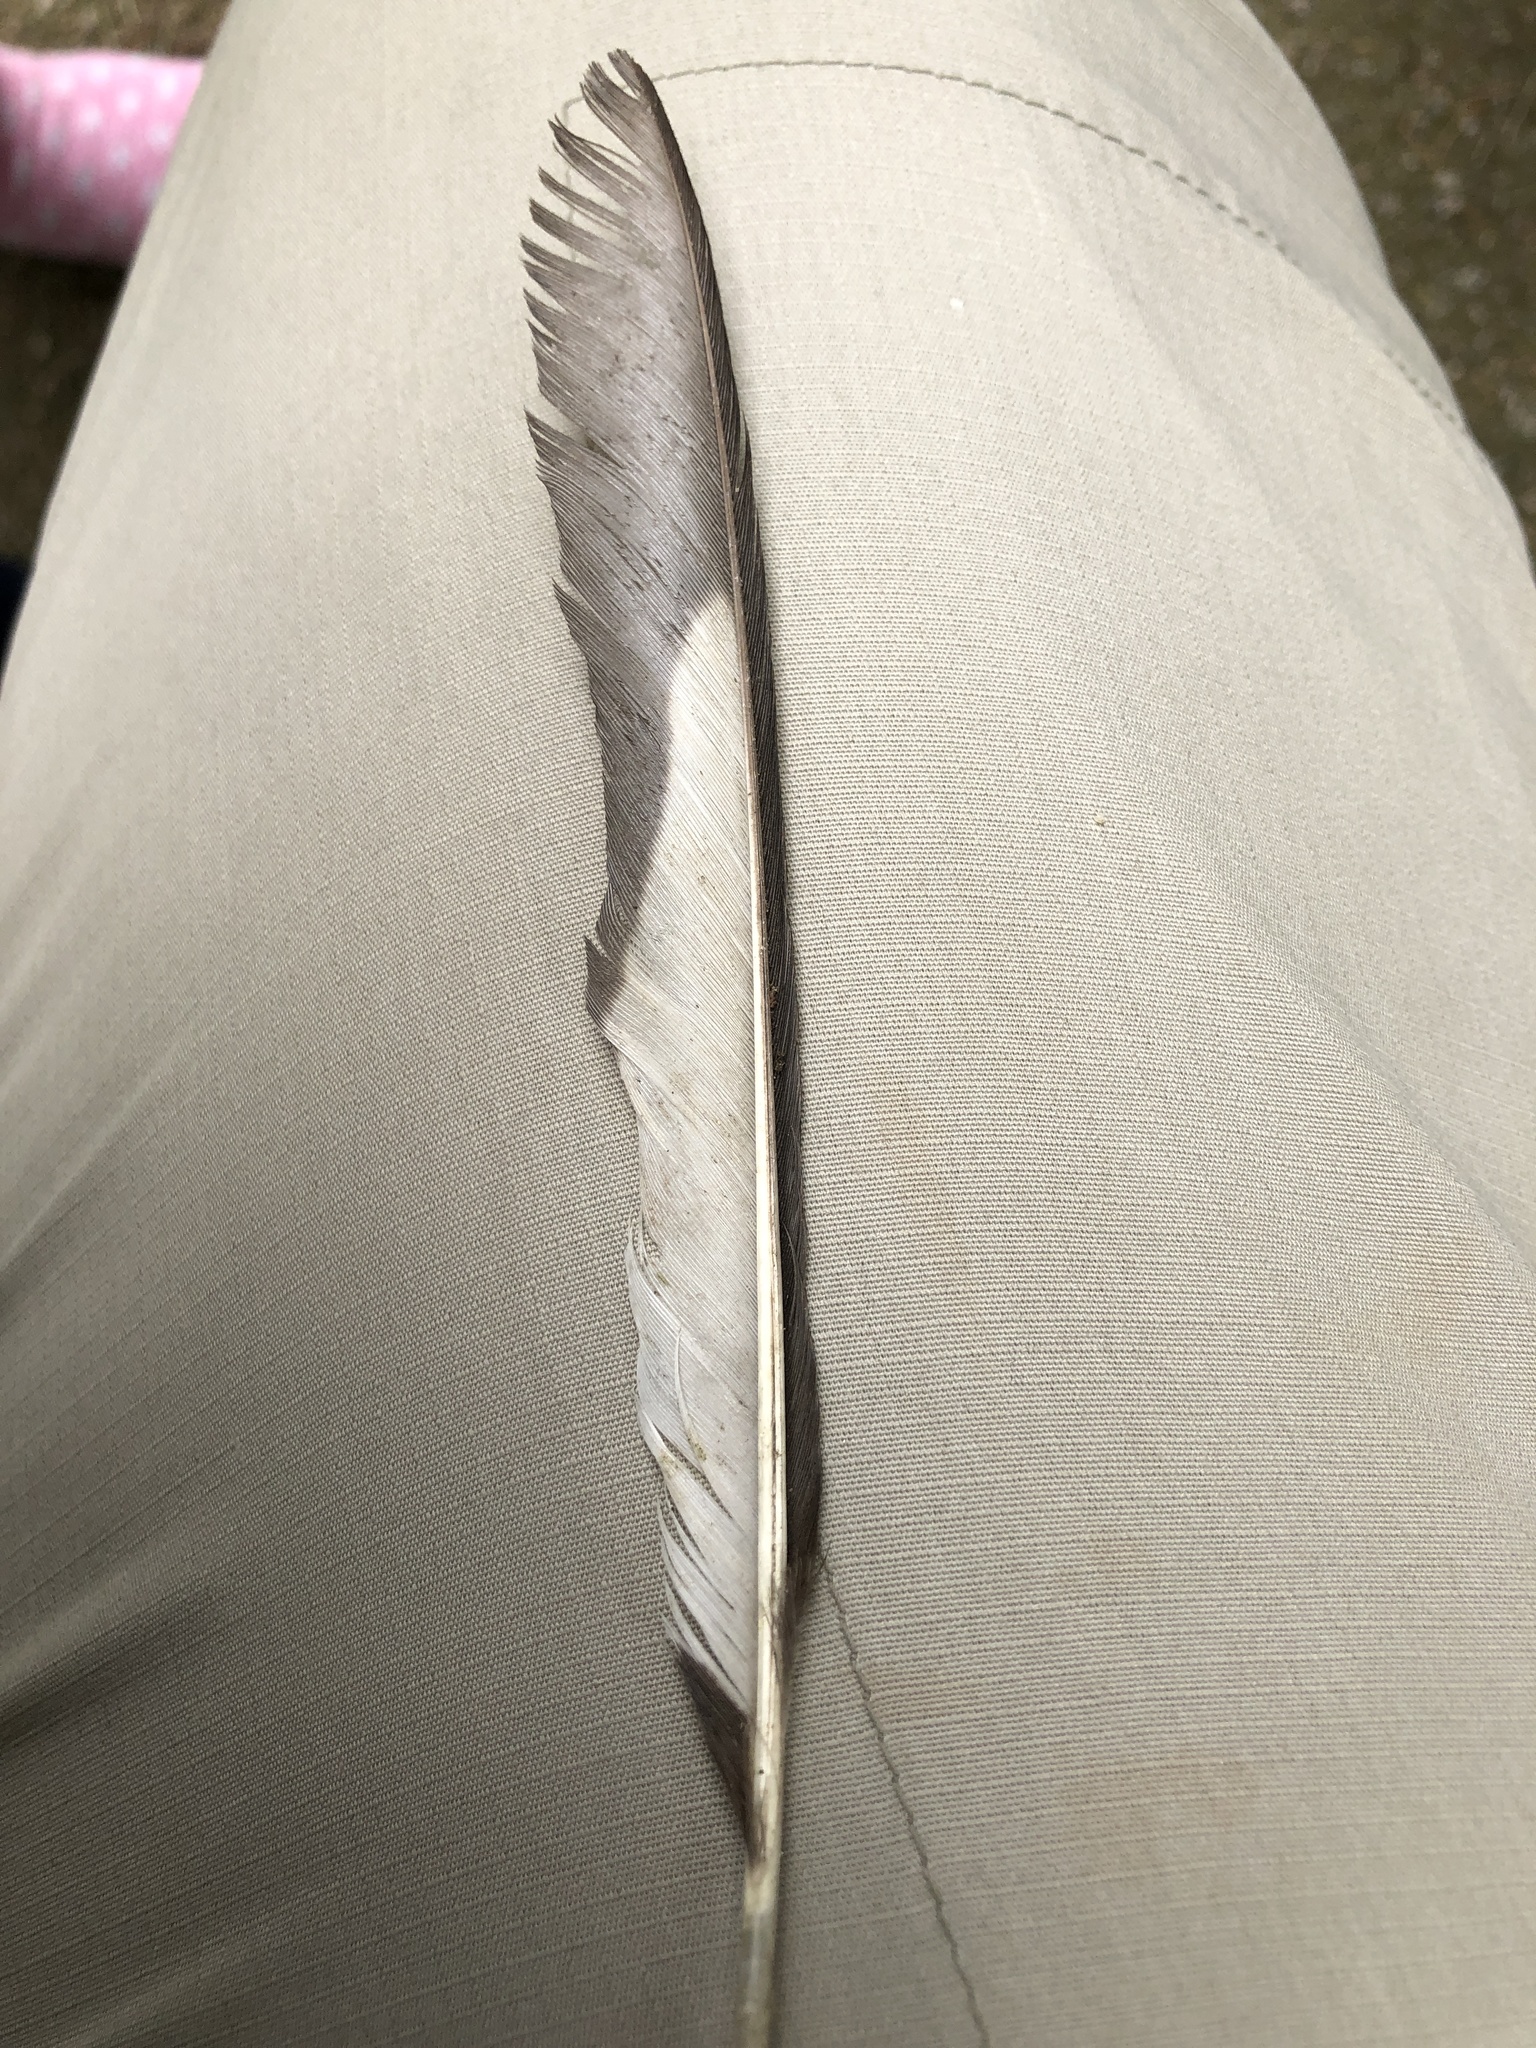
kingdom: Animalia
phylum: Chordata
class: Aves
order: Passeriformes
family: Corvidae
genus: Pica
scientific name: Pica serica
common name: Oriental magpie
